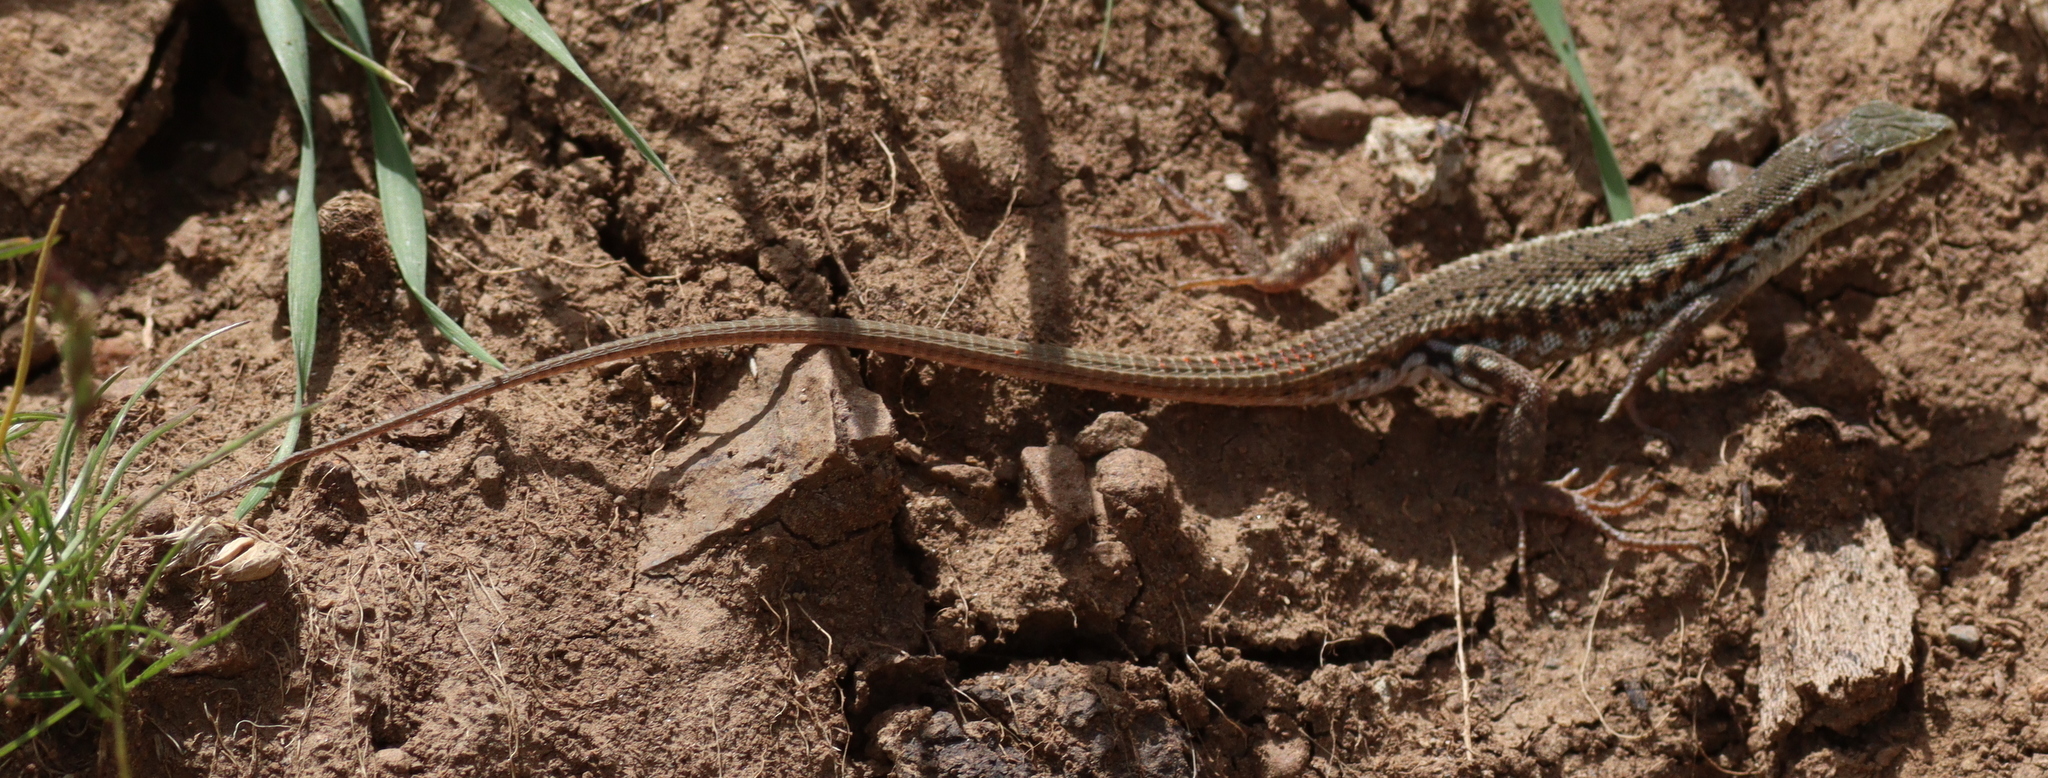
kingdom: Animalia
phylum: Chordata
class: Squamata
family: Lacertidae
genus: Ophisops
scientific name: Ophisops elegans
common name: Snake-eyed lizard
